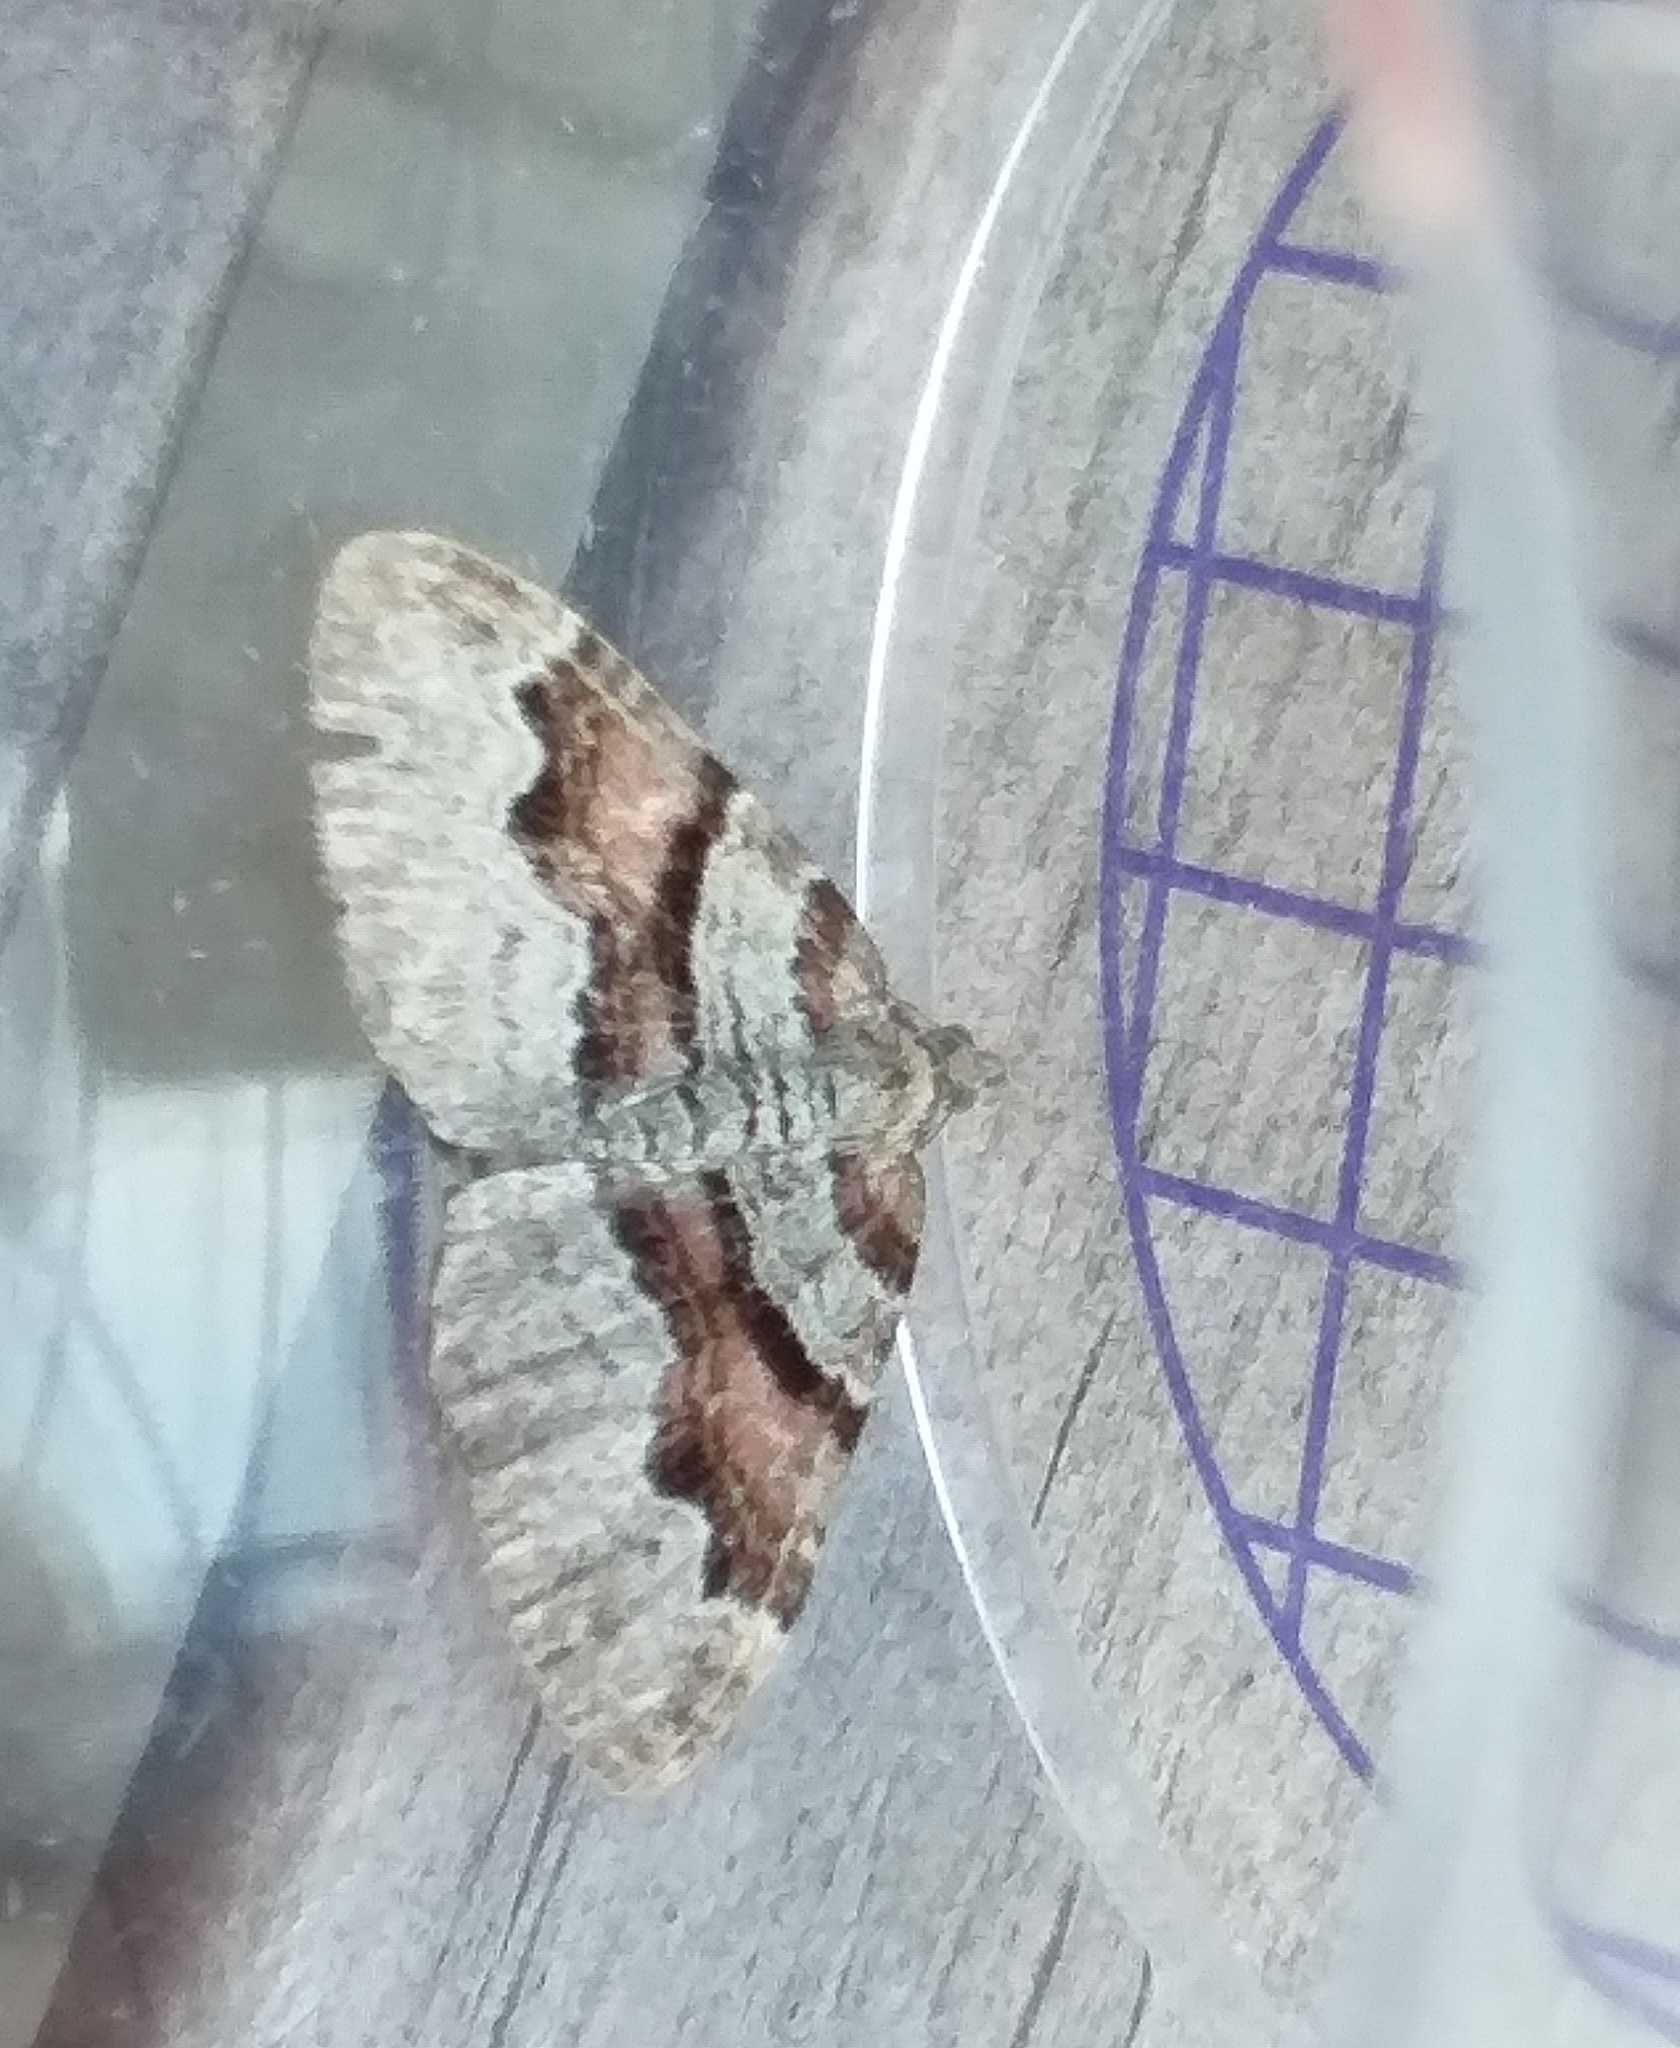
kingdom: Animalia
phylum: Arthropoda
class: Insecta
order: Lepidoptera
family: Geometridae
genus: Xanthorhoe
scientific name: Xanthorhoe designata
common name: Flame carpet
